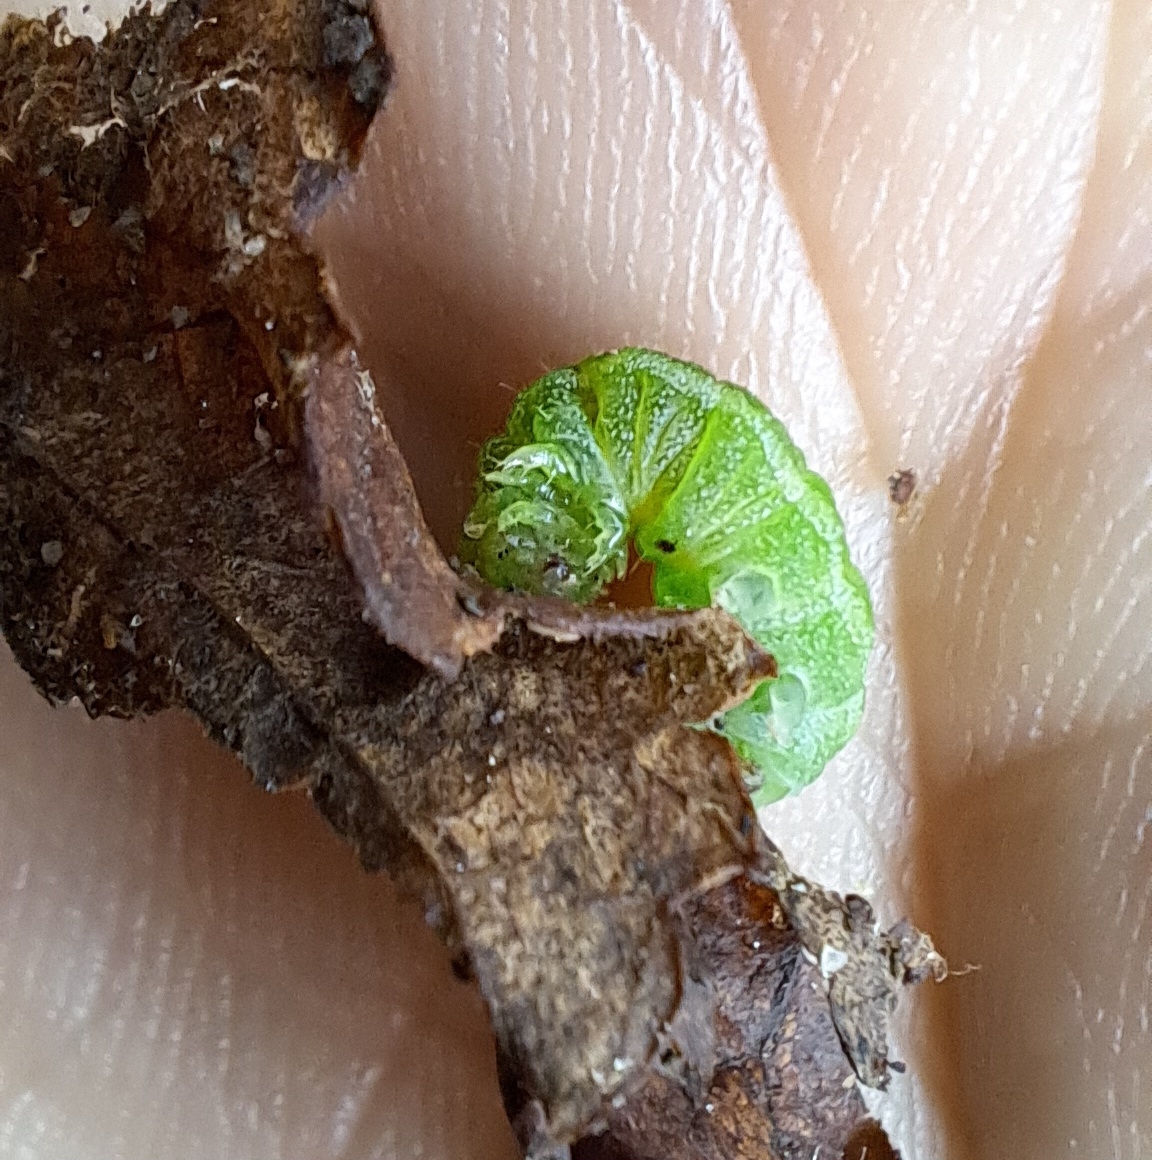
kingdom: Animalia
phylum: Arthropoda
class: Insecta
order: Lepidoptera
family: Noctuidae
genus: Phlogophora
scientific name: Phlogophora meticulosa
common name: Angle shades
